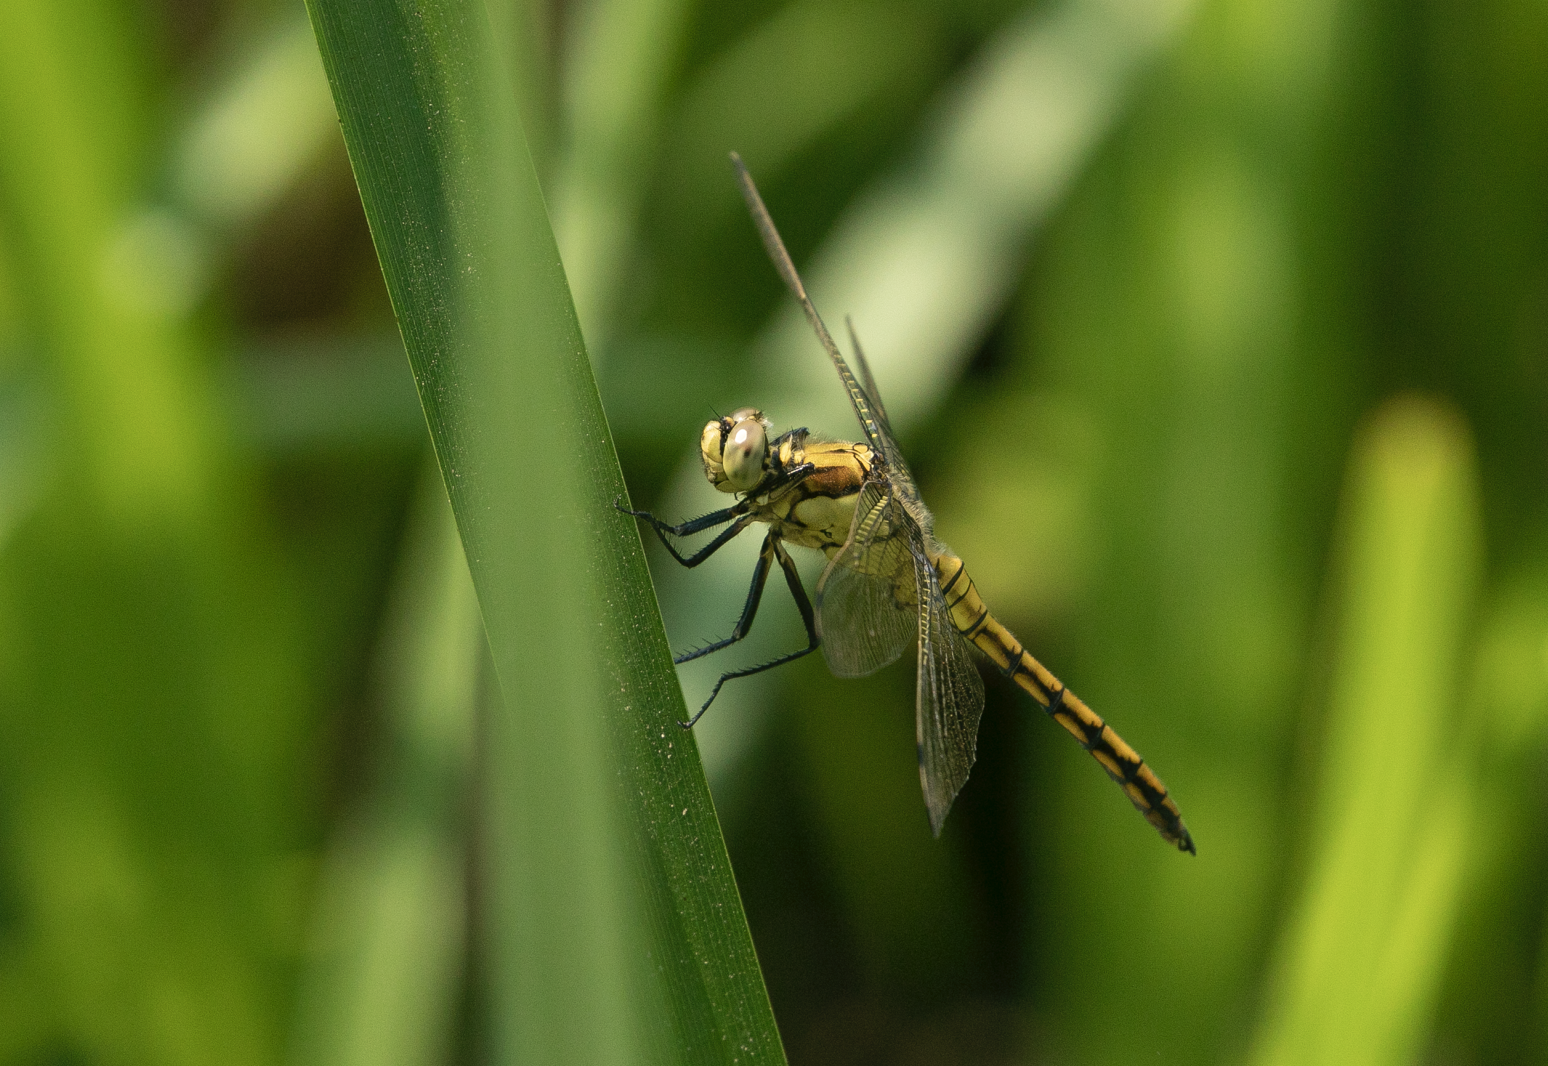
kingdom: Animalia
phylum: Arthropoda
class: Insecta
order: Odonata
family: Libellulidae
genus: Orthetrum
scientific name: Orthetrum cancellatum
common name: Black-tailed skimmer
